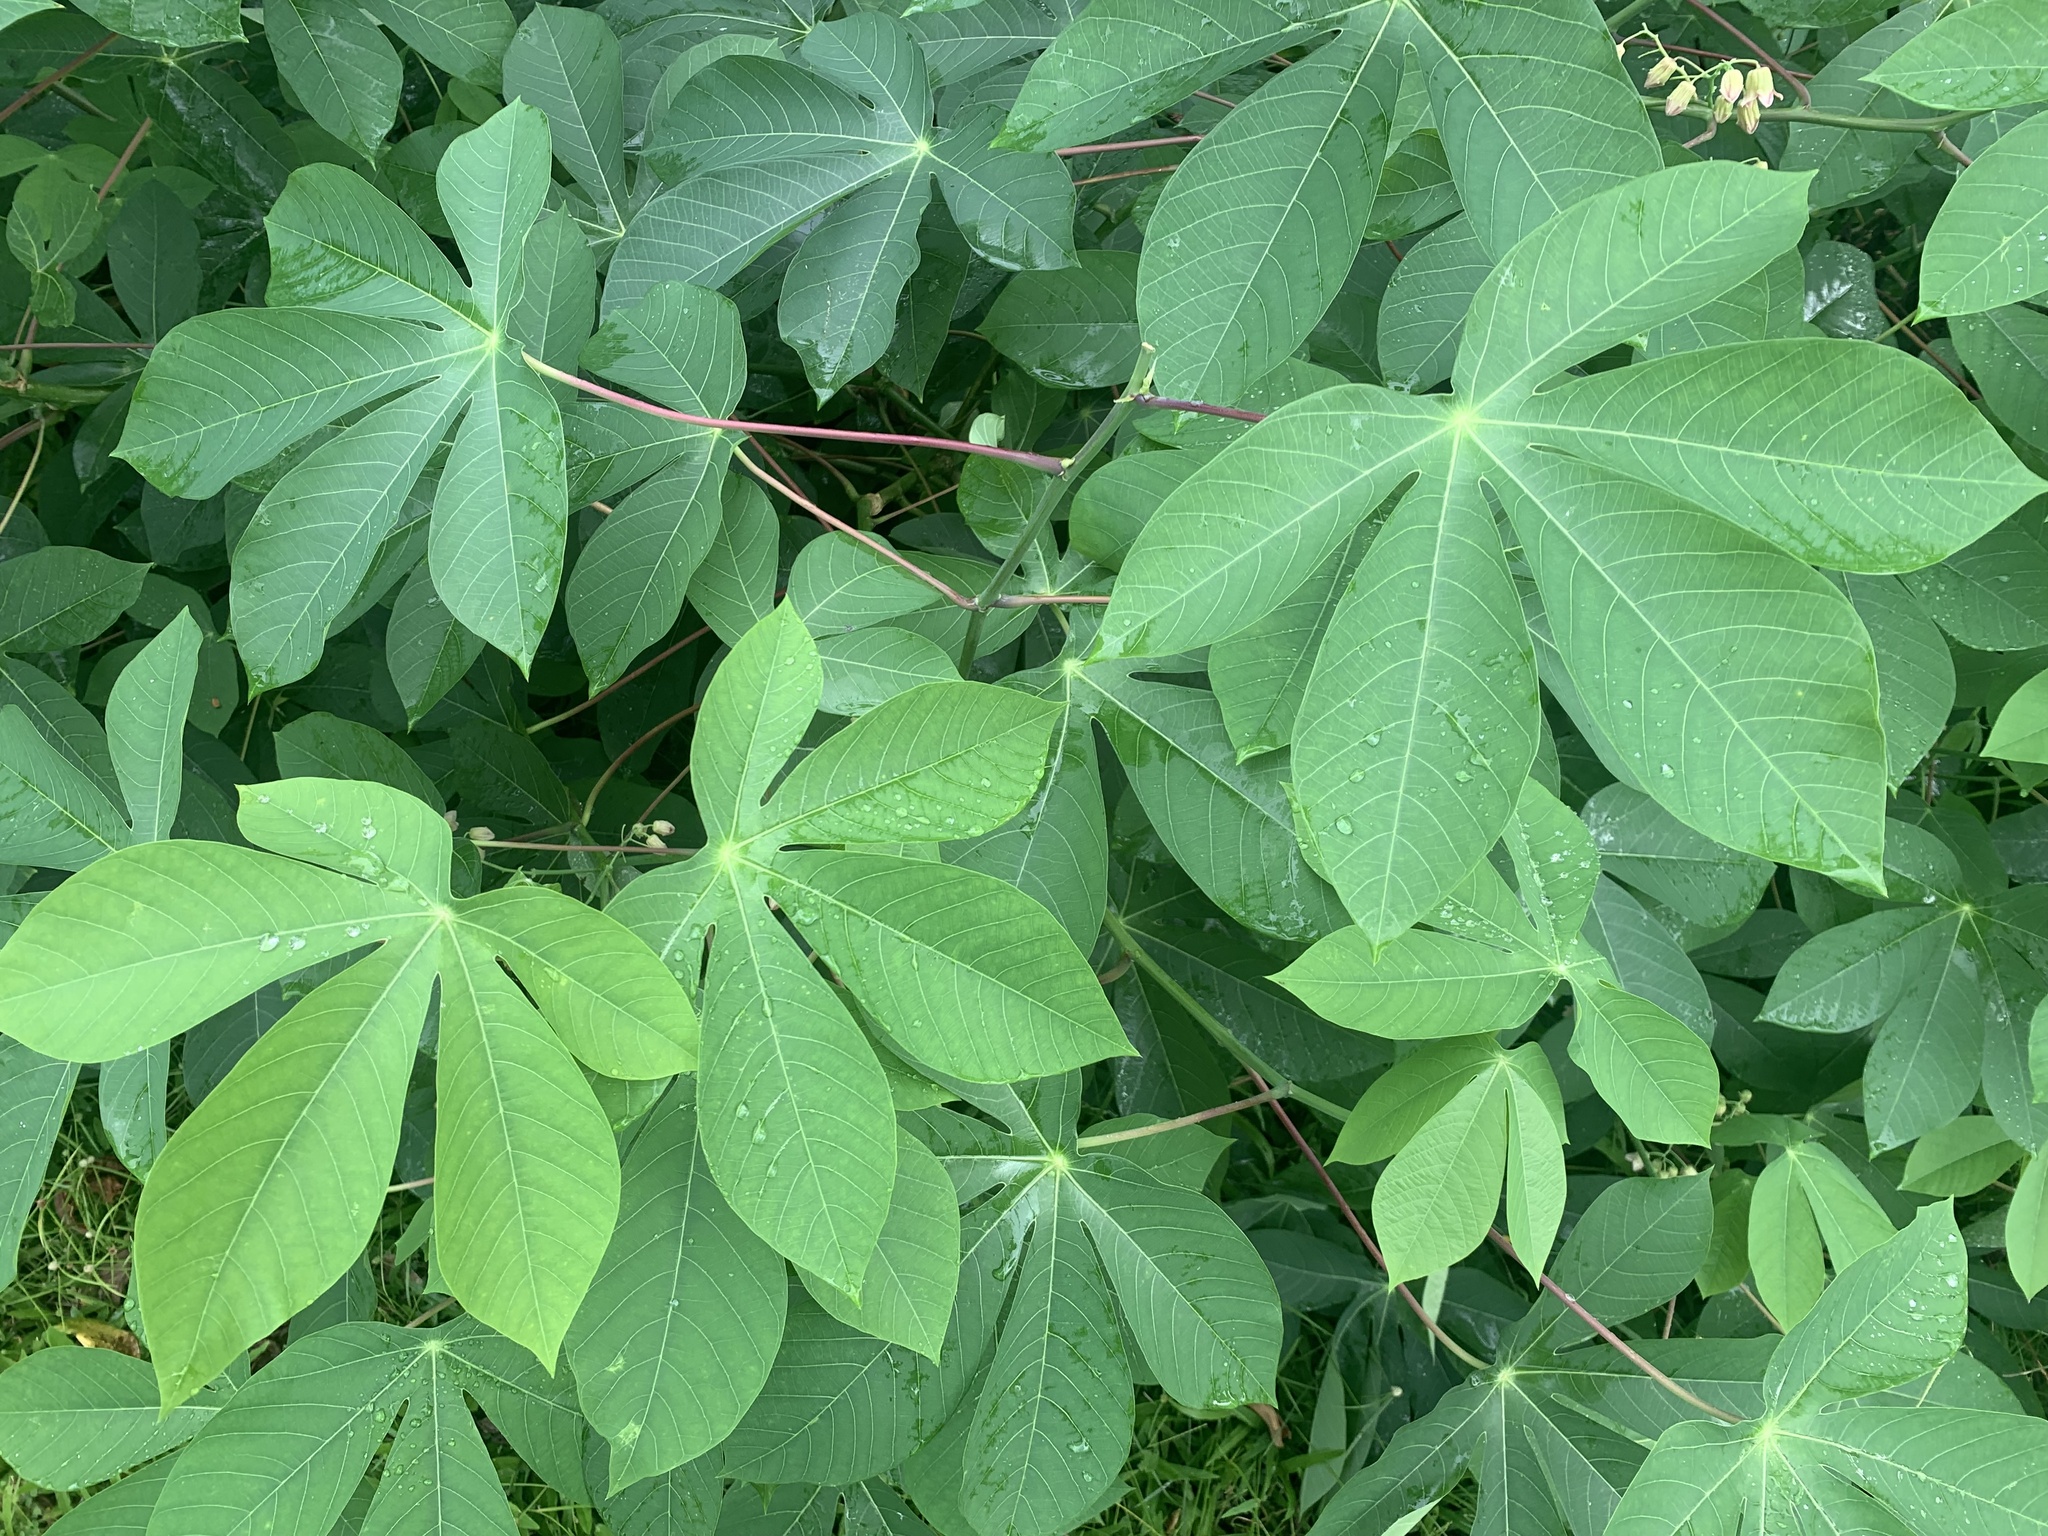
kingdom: Plantae
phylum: Tracheophyta
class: Magnoliopsida
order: Malpighiales
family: Euphorbiaceae
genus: Manihot
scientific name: Manihot carthagenensis
